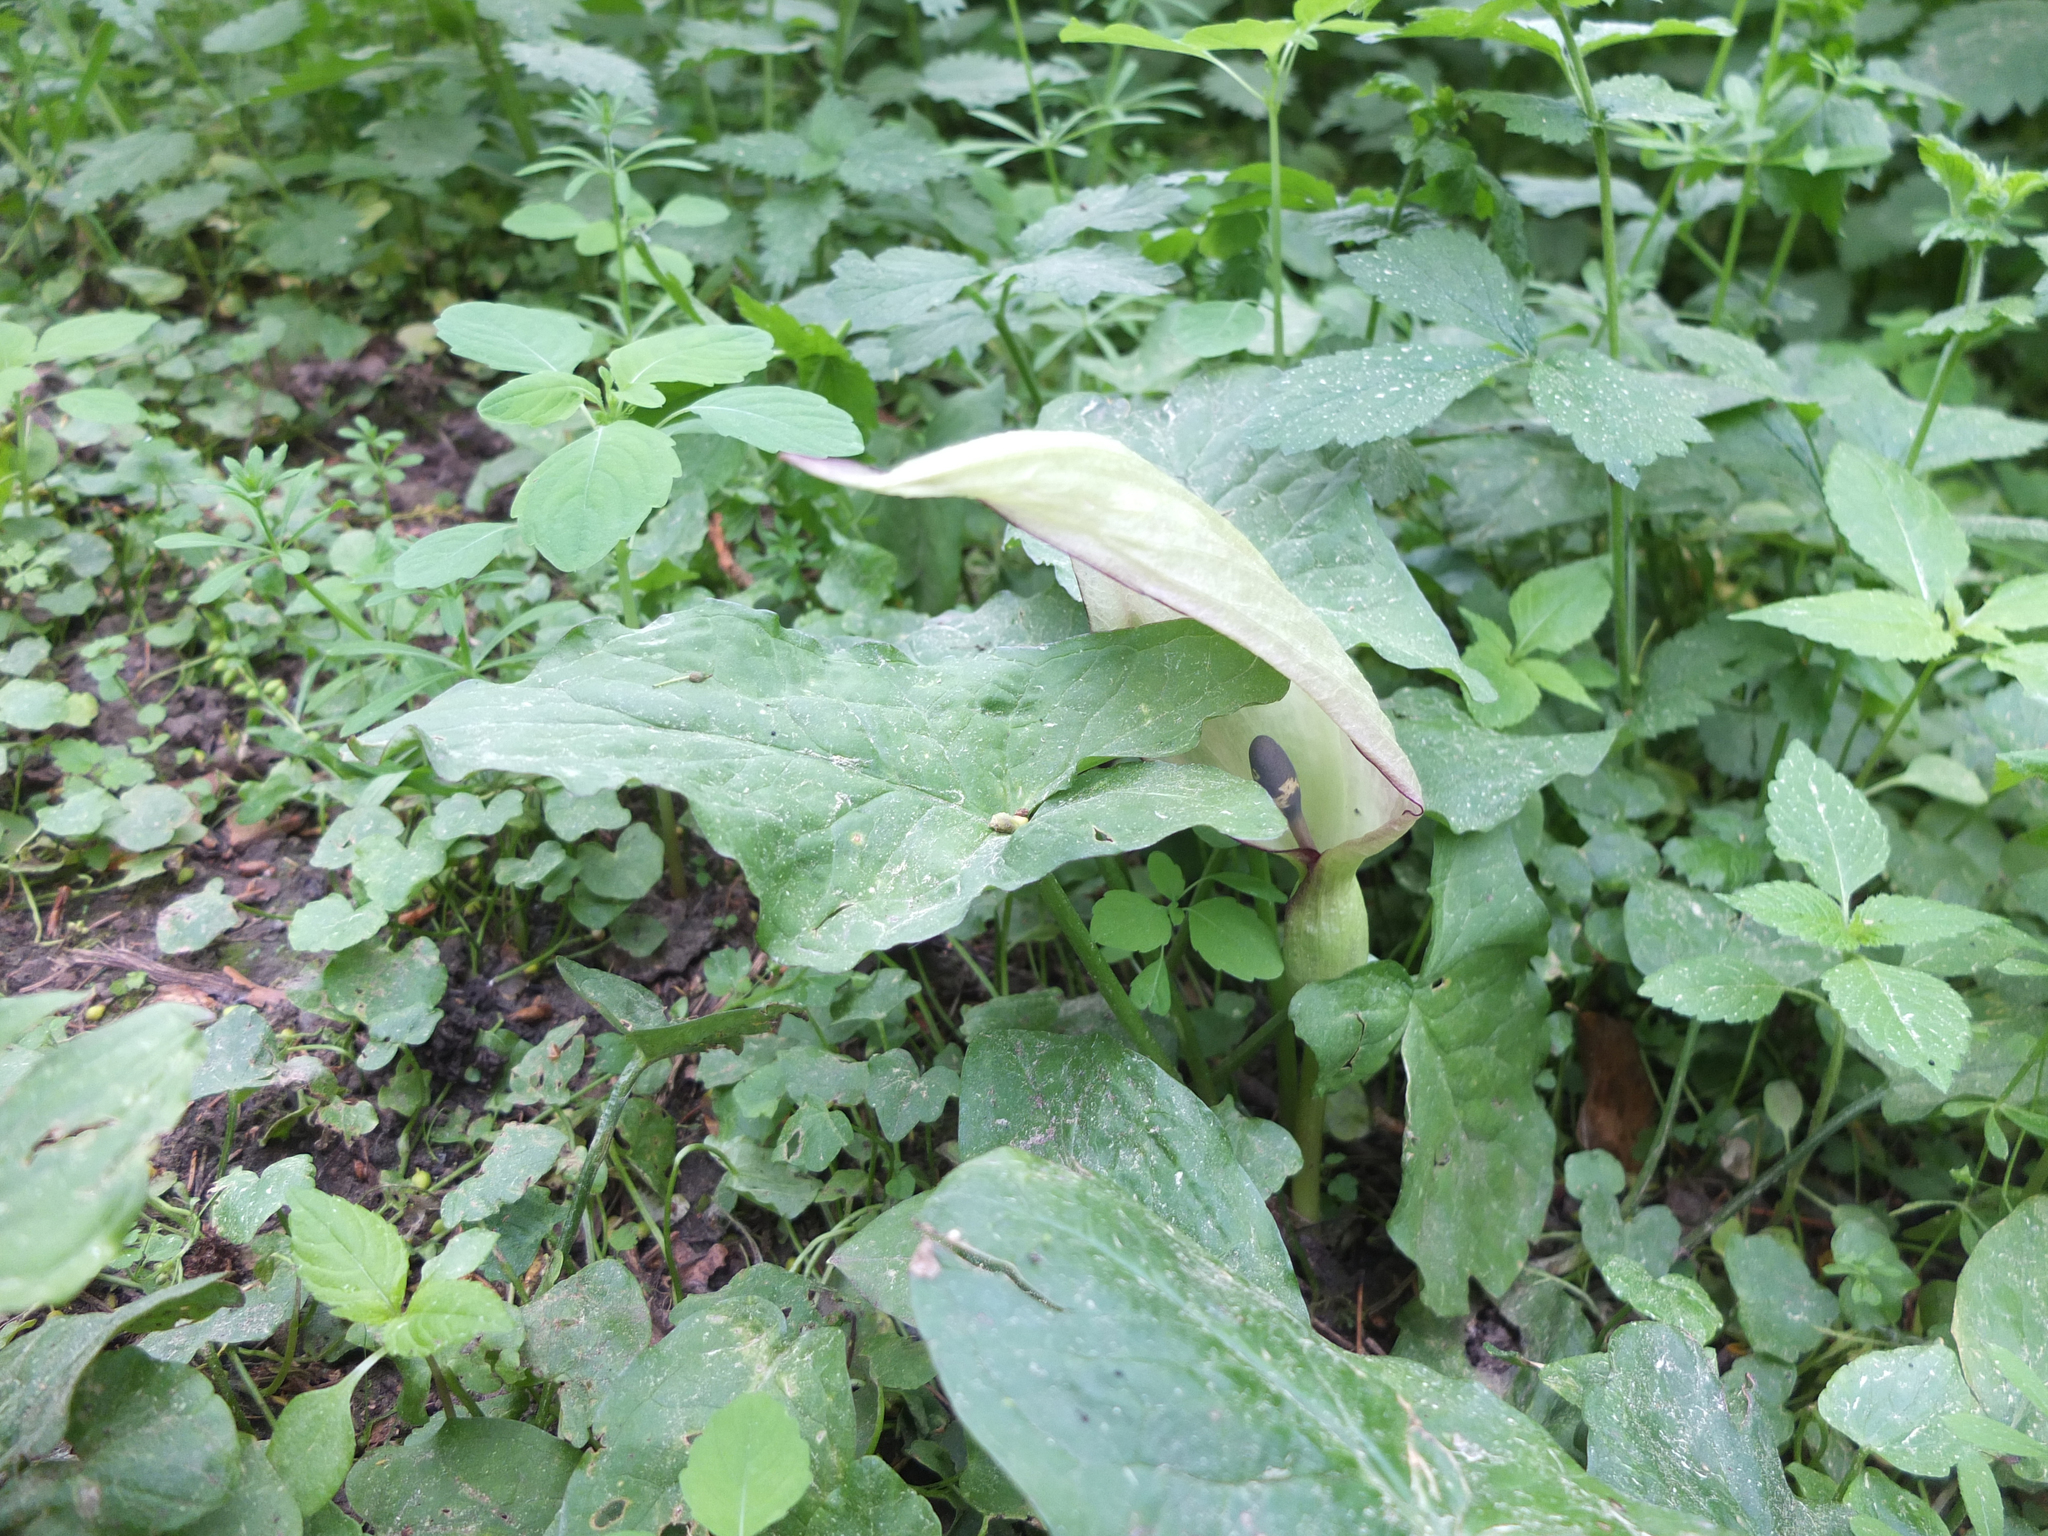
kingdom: Plantae
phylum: Tracheophyta
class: Liliopsida
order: Alismatales
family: Araceae
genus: Arum
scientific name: Arum maculatum
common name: Lords-and-ladies
